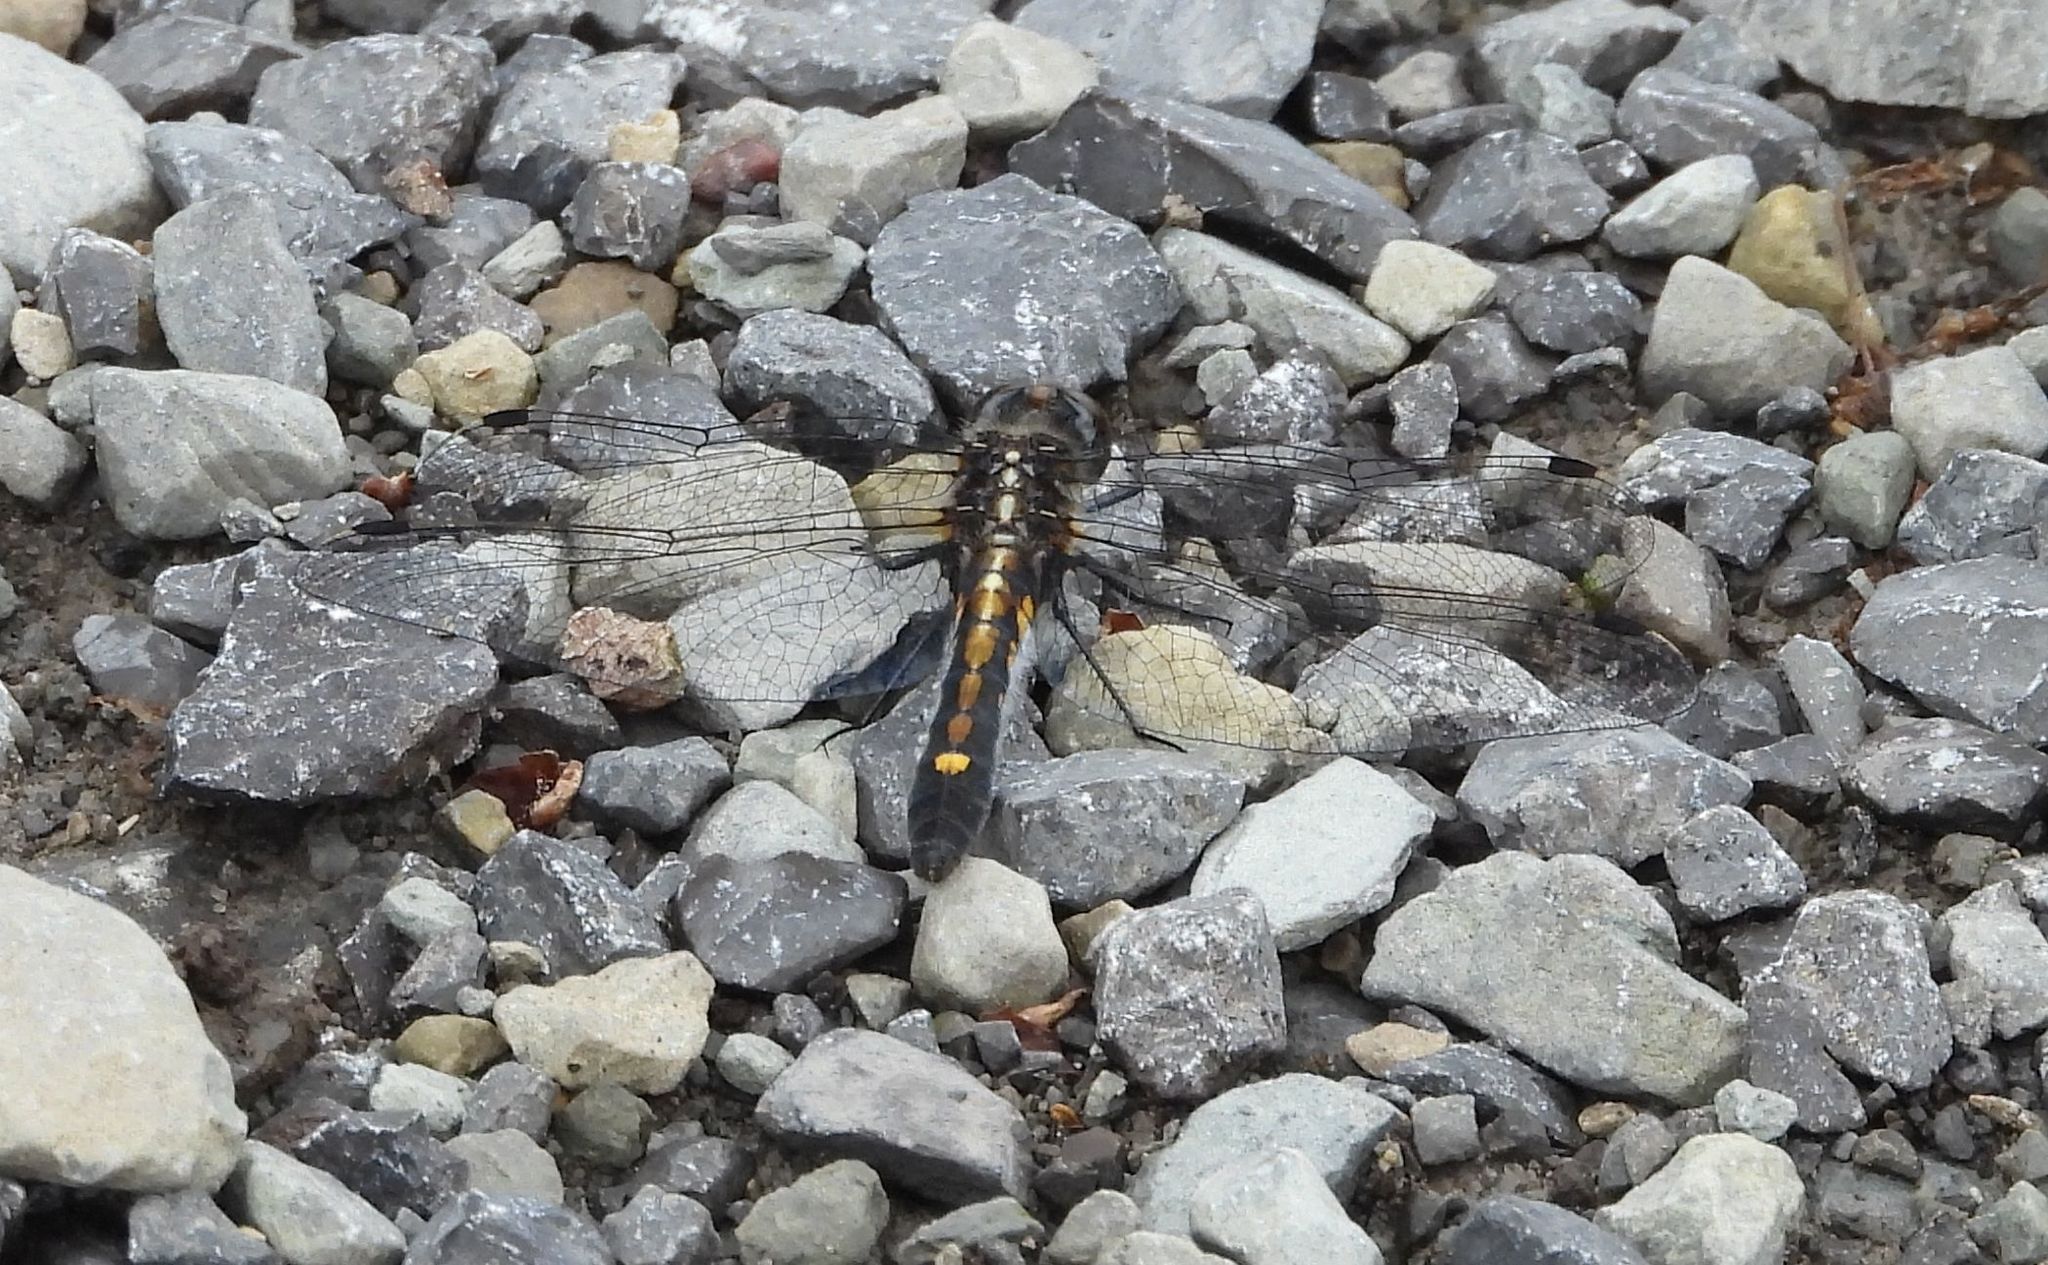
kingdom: Animalia
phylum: Arthropoda
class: Insecta
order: Odonata
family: Libellulidae
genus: Leucorrhinia
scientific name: Leucorrhinia intacta
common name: Dot-tailed whiteface
